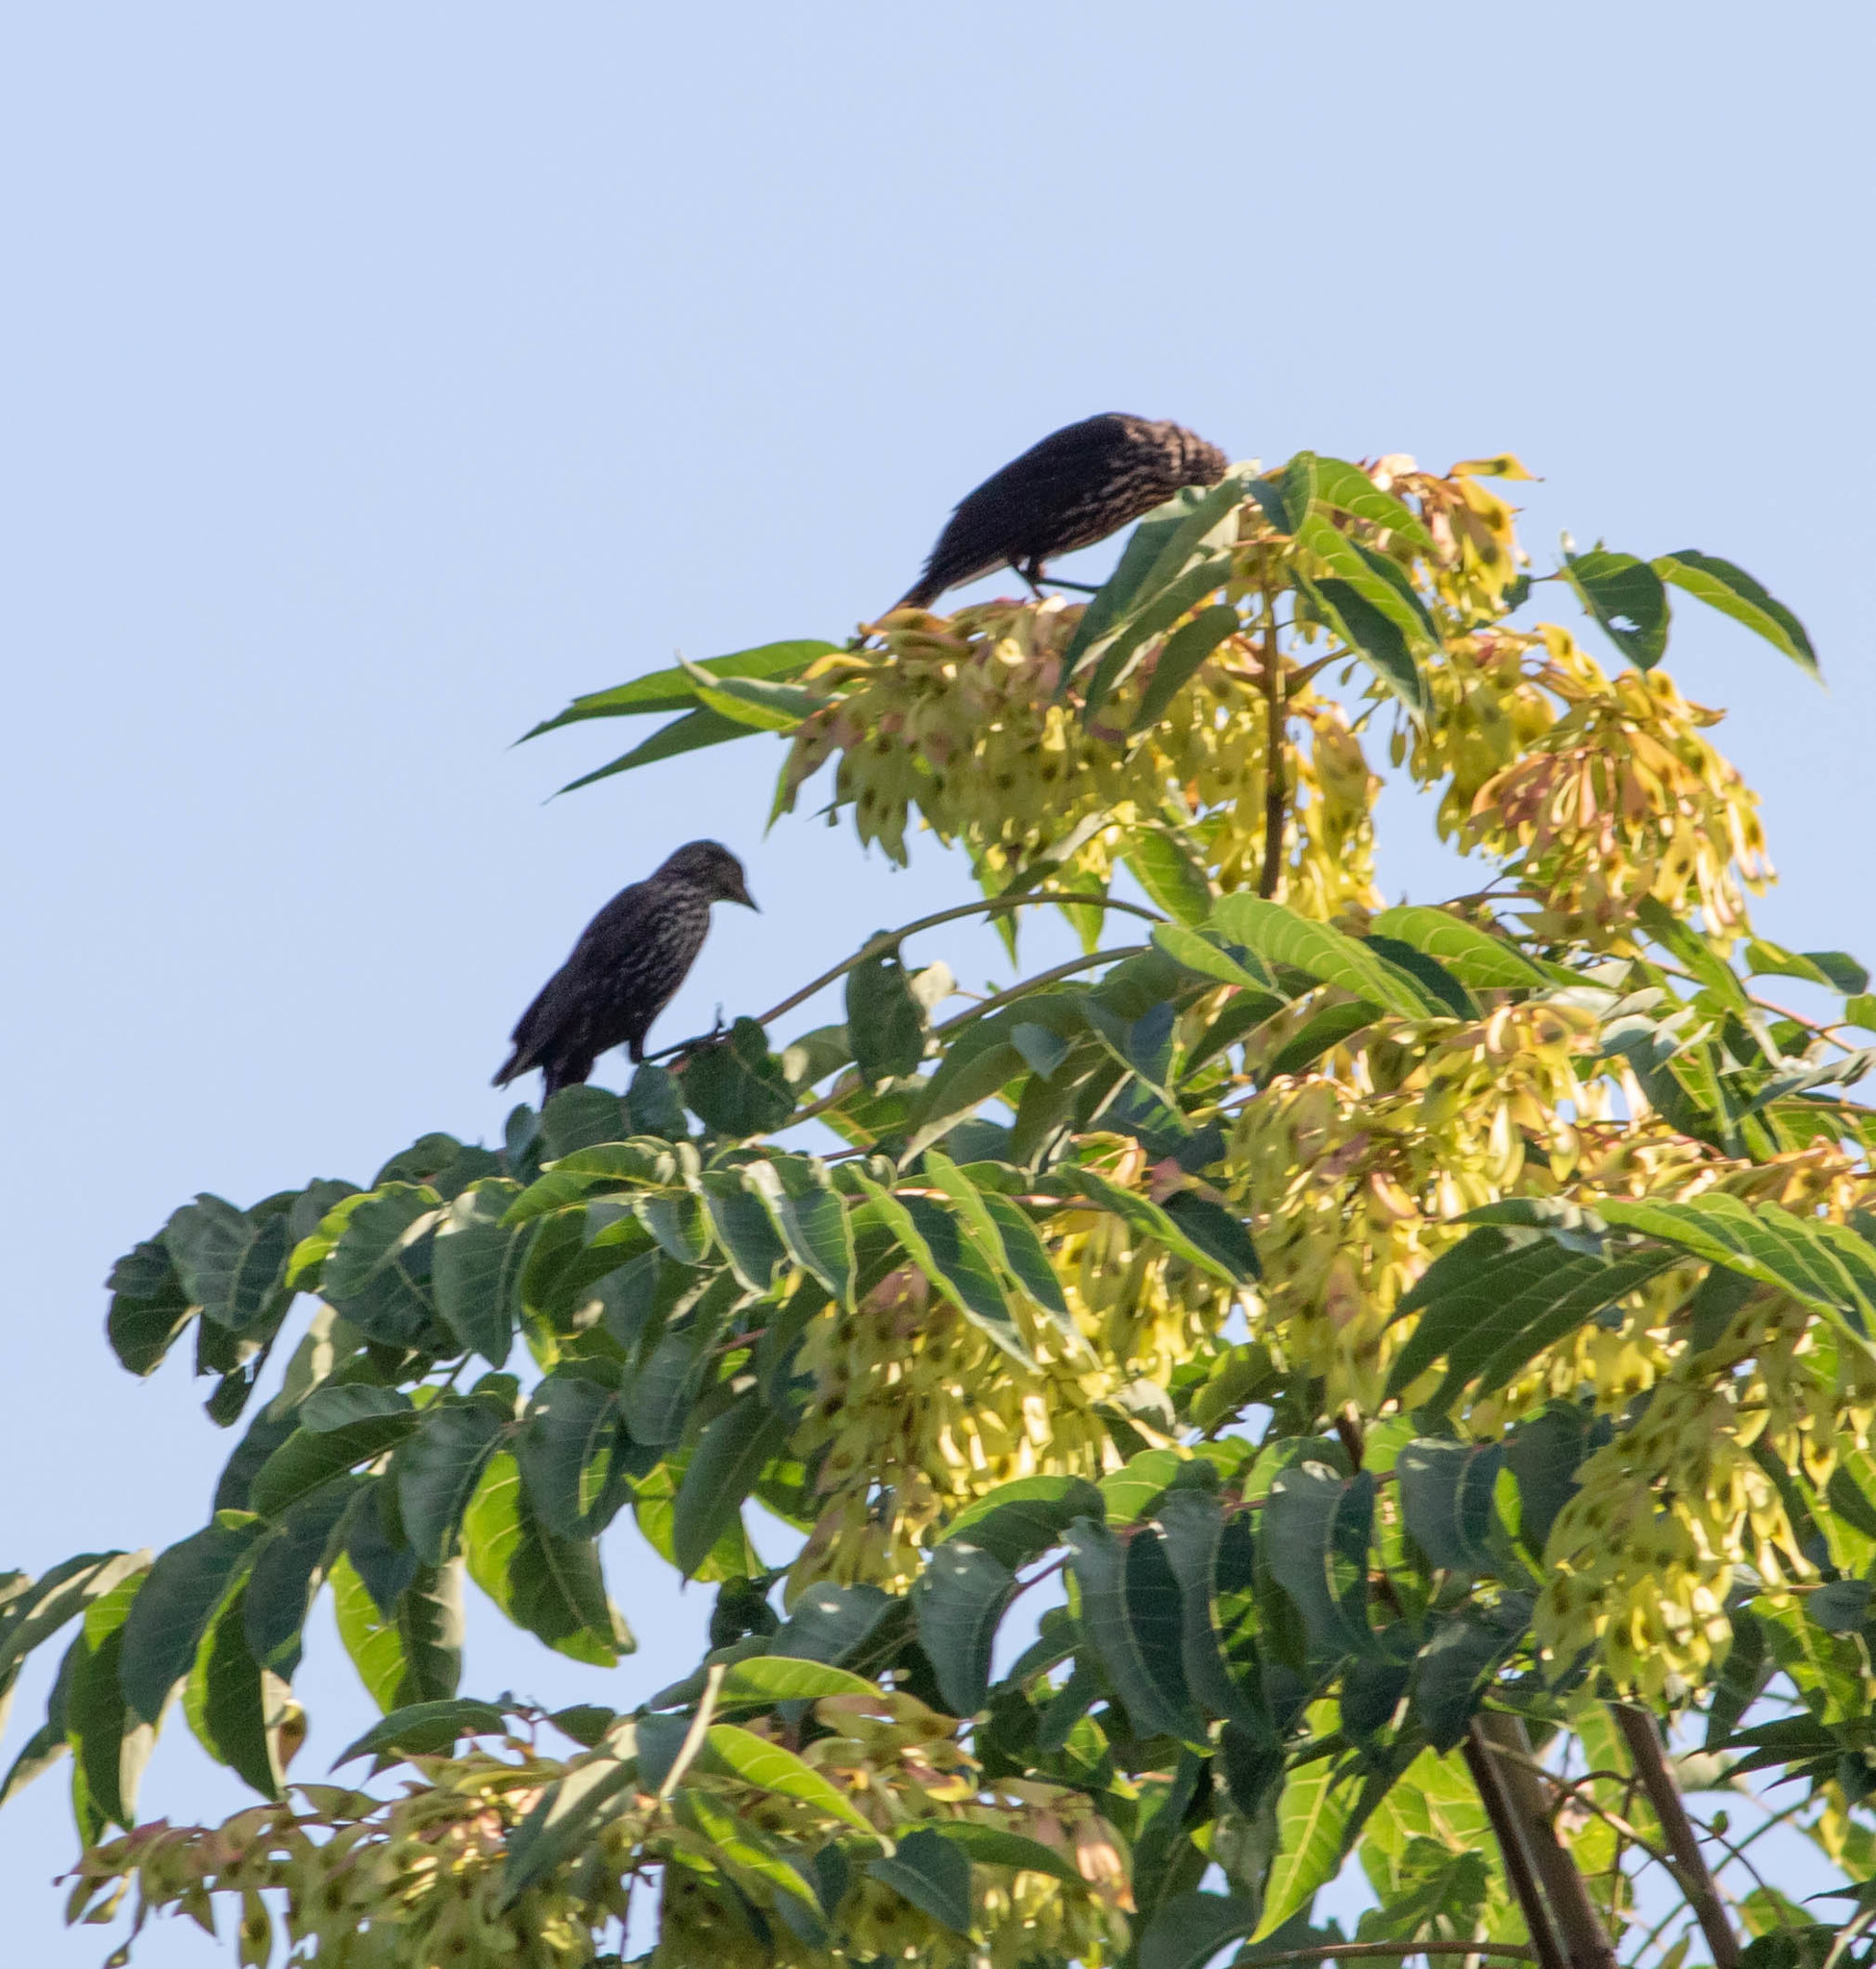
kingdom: Animalia
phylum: Chordata
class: Aves
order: Passeriformes
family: Icteridae
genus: Agelaius
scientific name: Agelaius phoeniceus
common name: Red-winged blackbird
